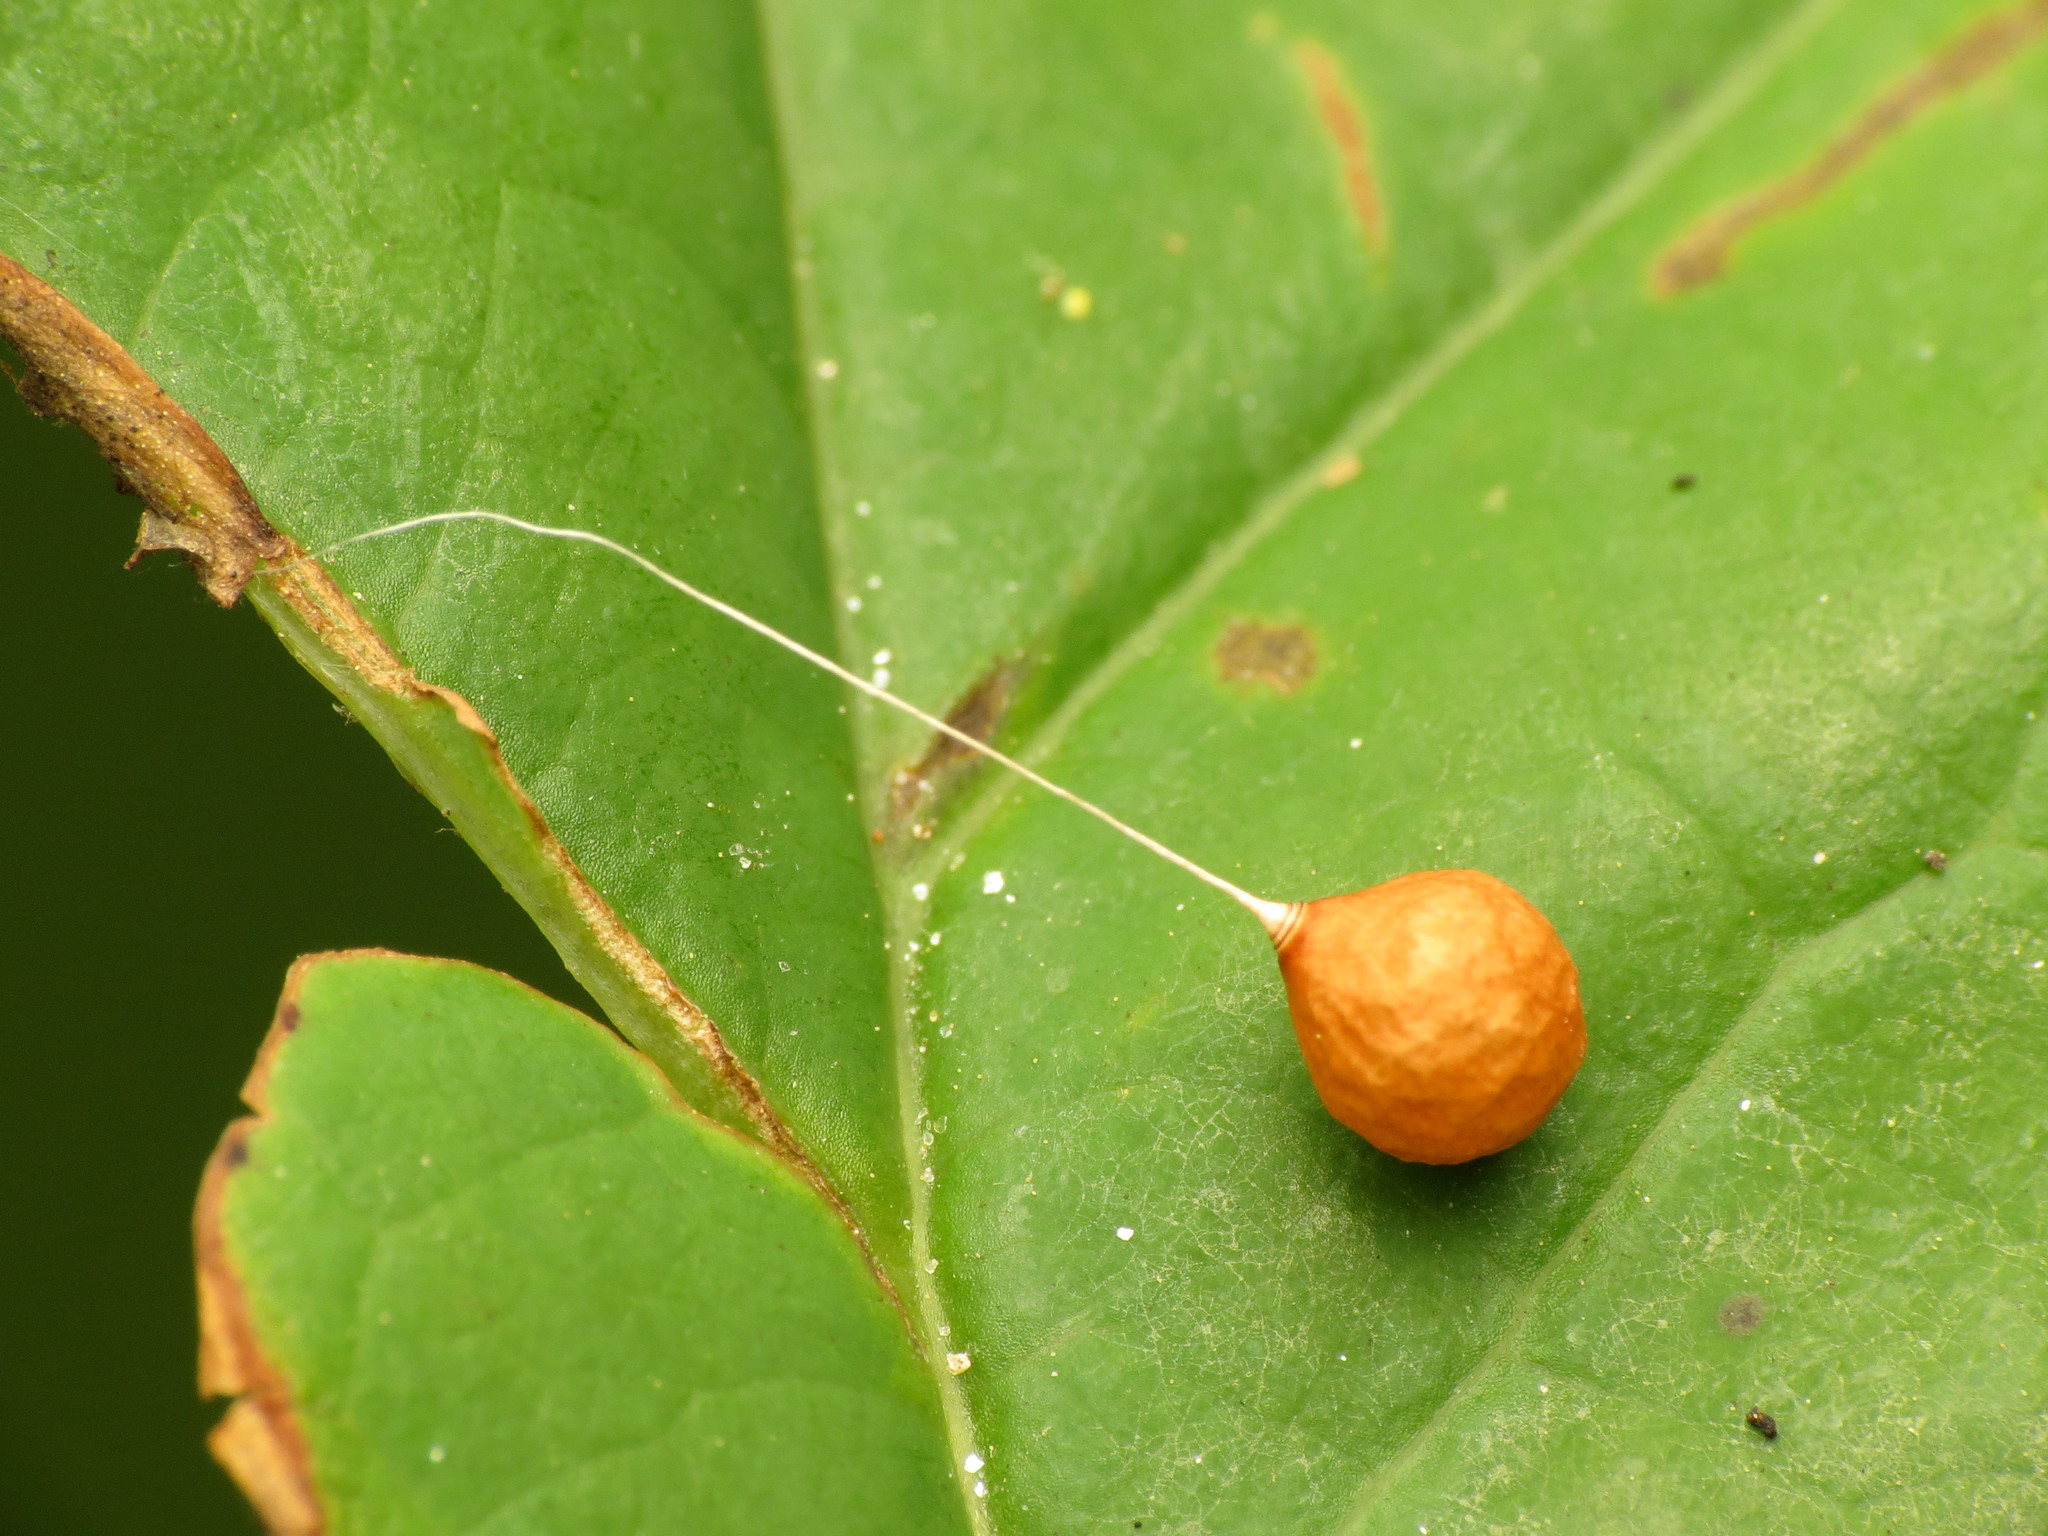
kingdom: Animalia
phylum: Arthropoda
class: Arachnida
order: Araneae
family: Theridiosomatidae
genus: Theridiosoma
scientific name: Theridiosoma gemmosum
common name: Ray spider
